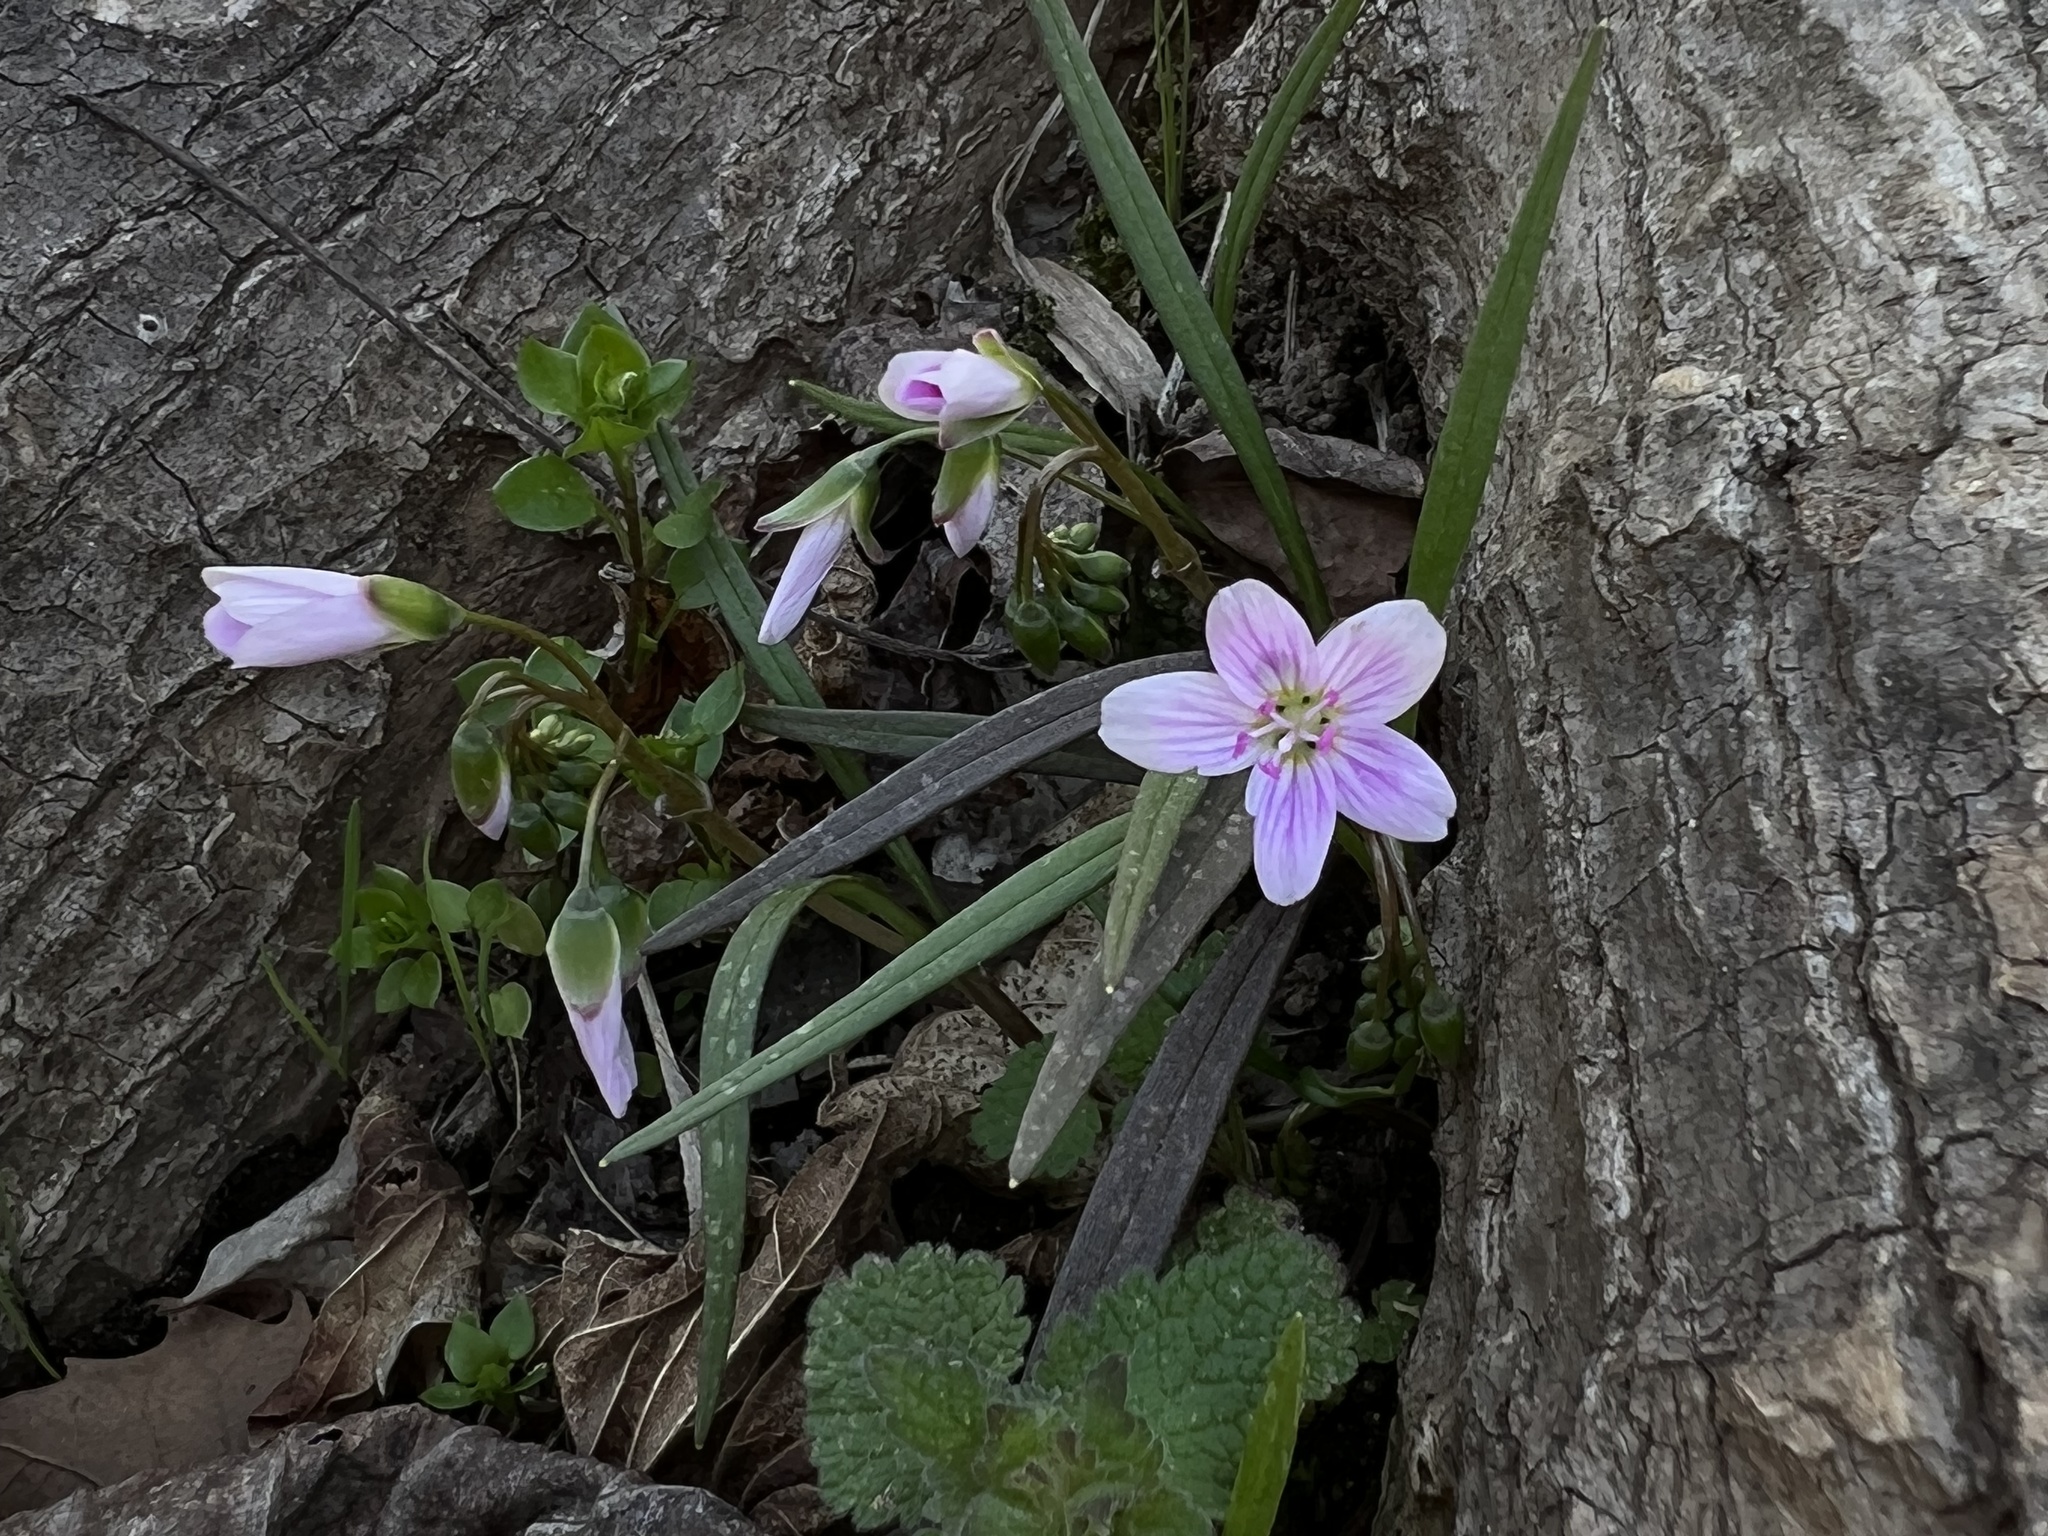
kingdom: Plantae
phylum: Tracheophyta
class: Magnoliopsida
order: Caryophyllales
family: Montiaceae
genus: Claytonia
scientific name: Claytonia virginica
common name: Virginia springbeauty
